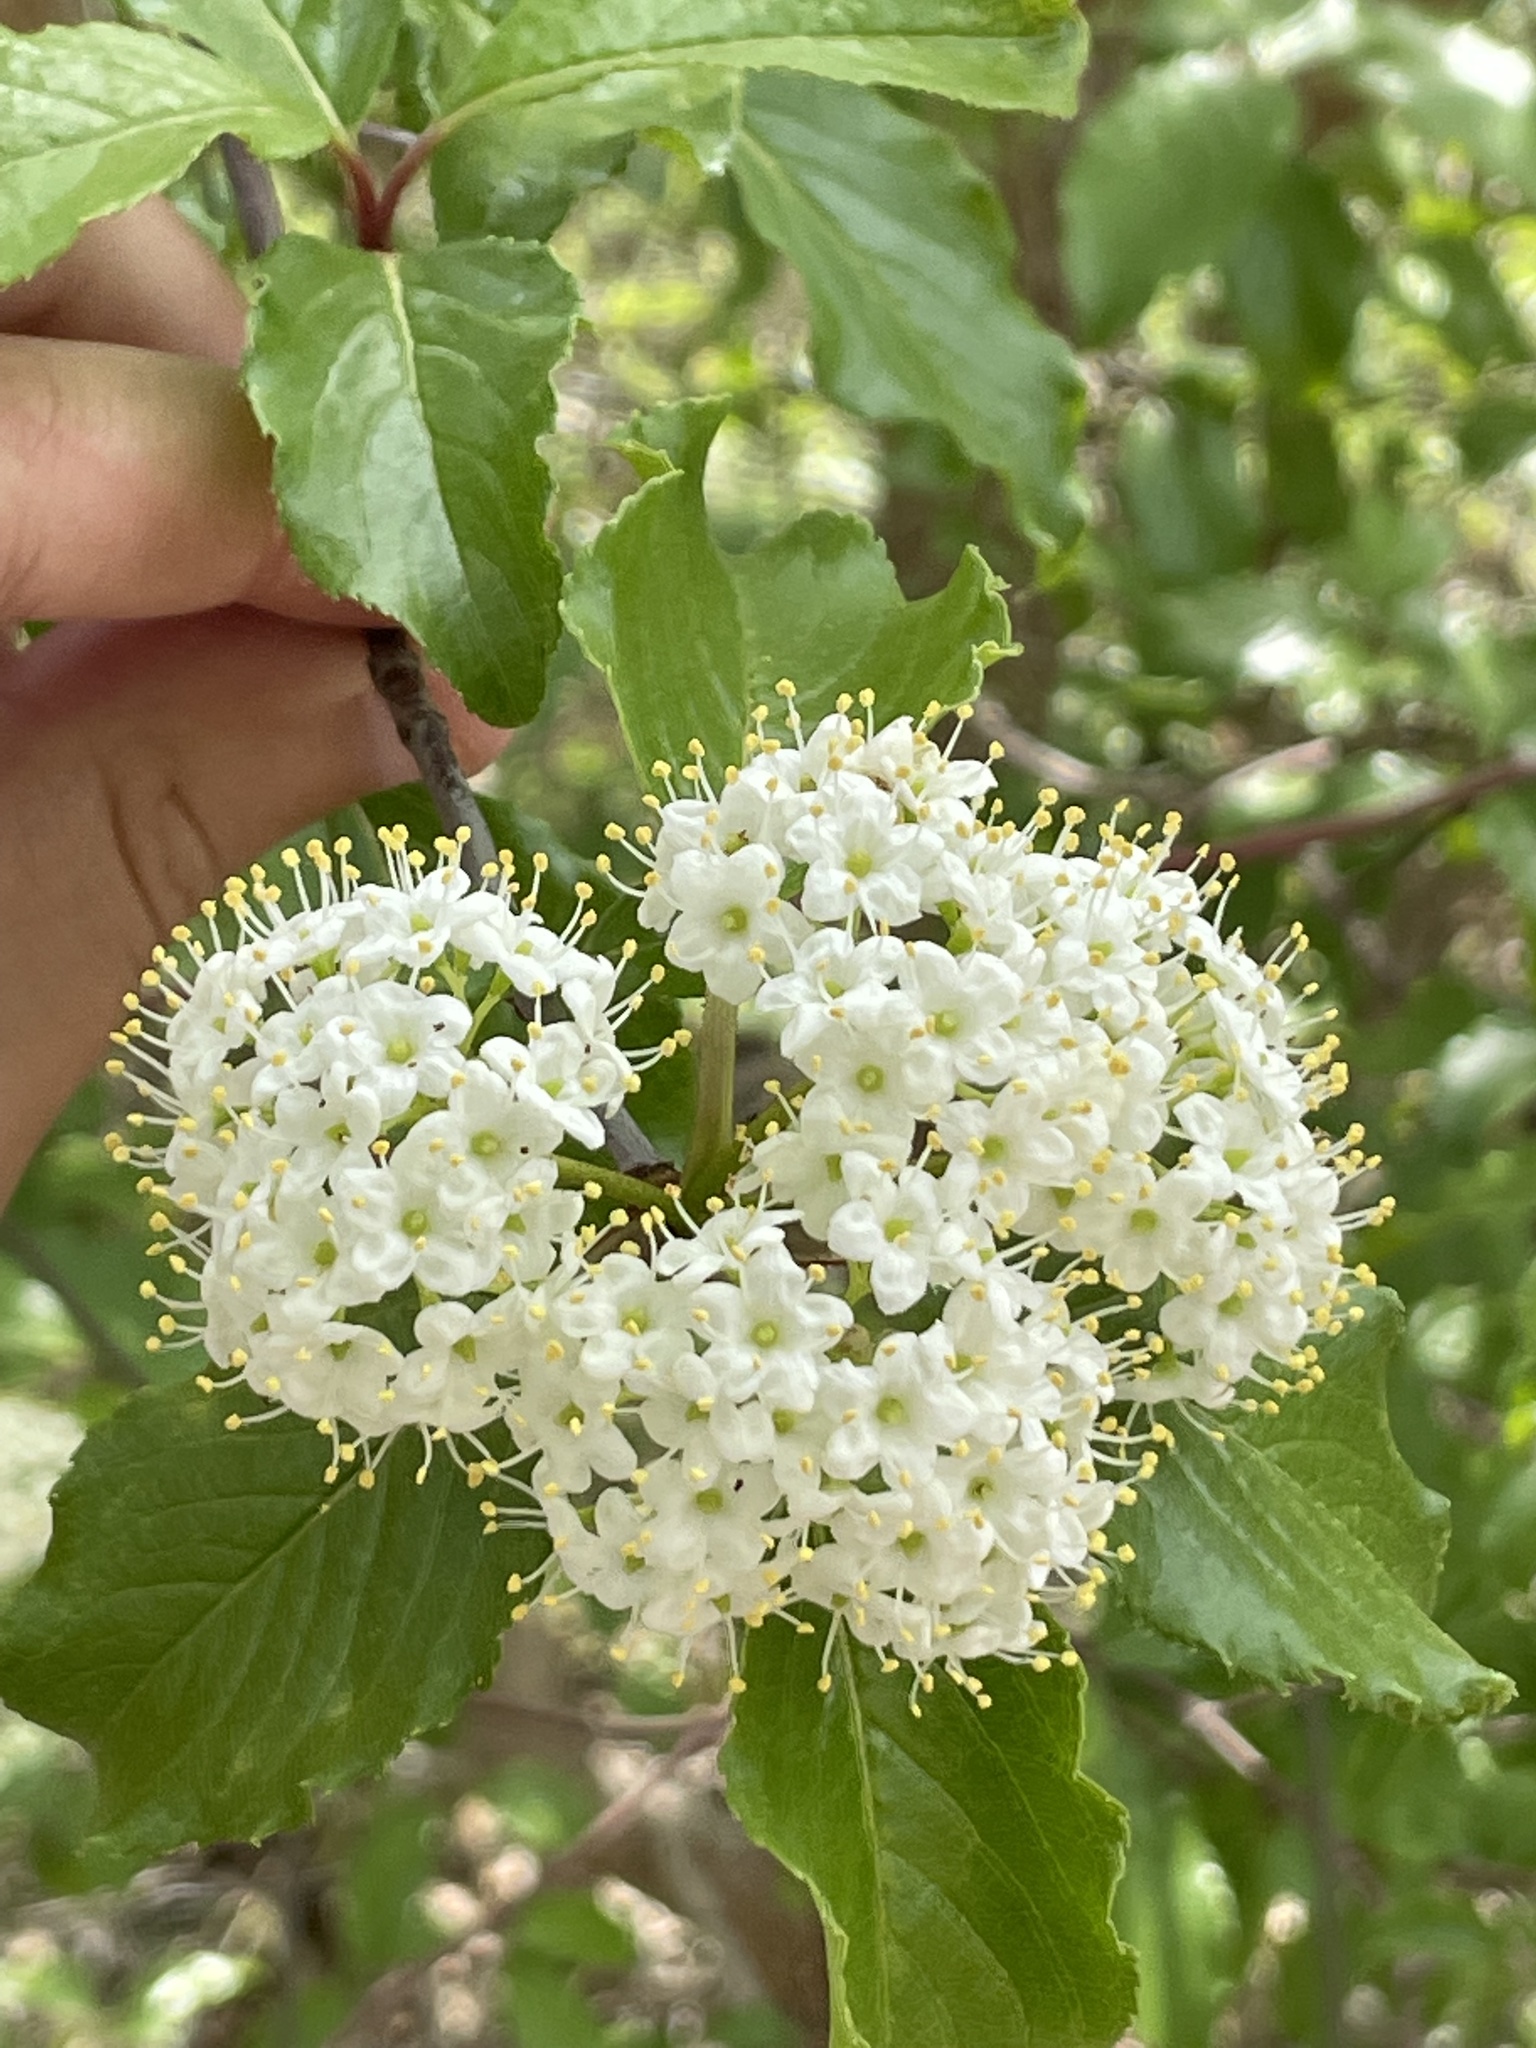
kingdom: Plantae
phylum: Tracheophyta
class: Magnoliopsida
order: Dipsacales
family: Viburnaceae
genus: Viburnum
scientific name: Viburnum rufidulum
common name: Blue haw
